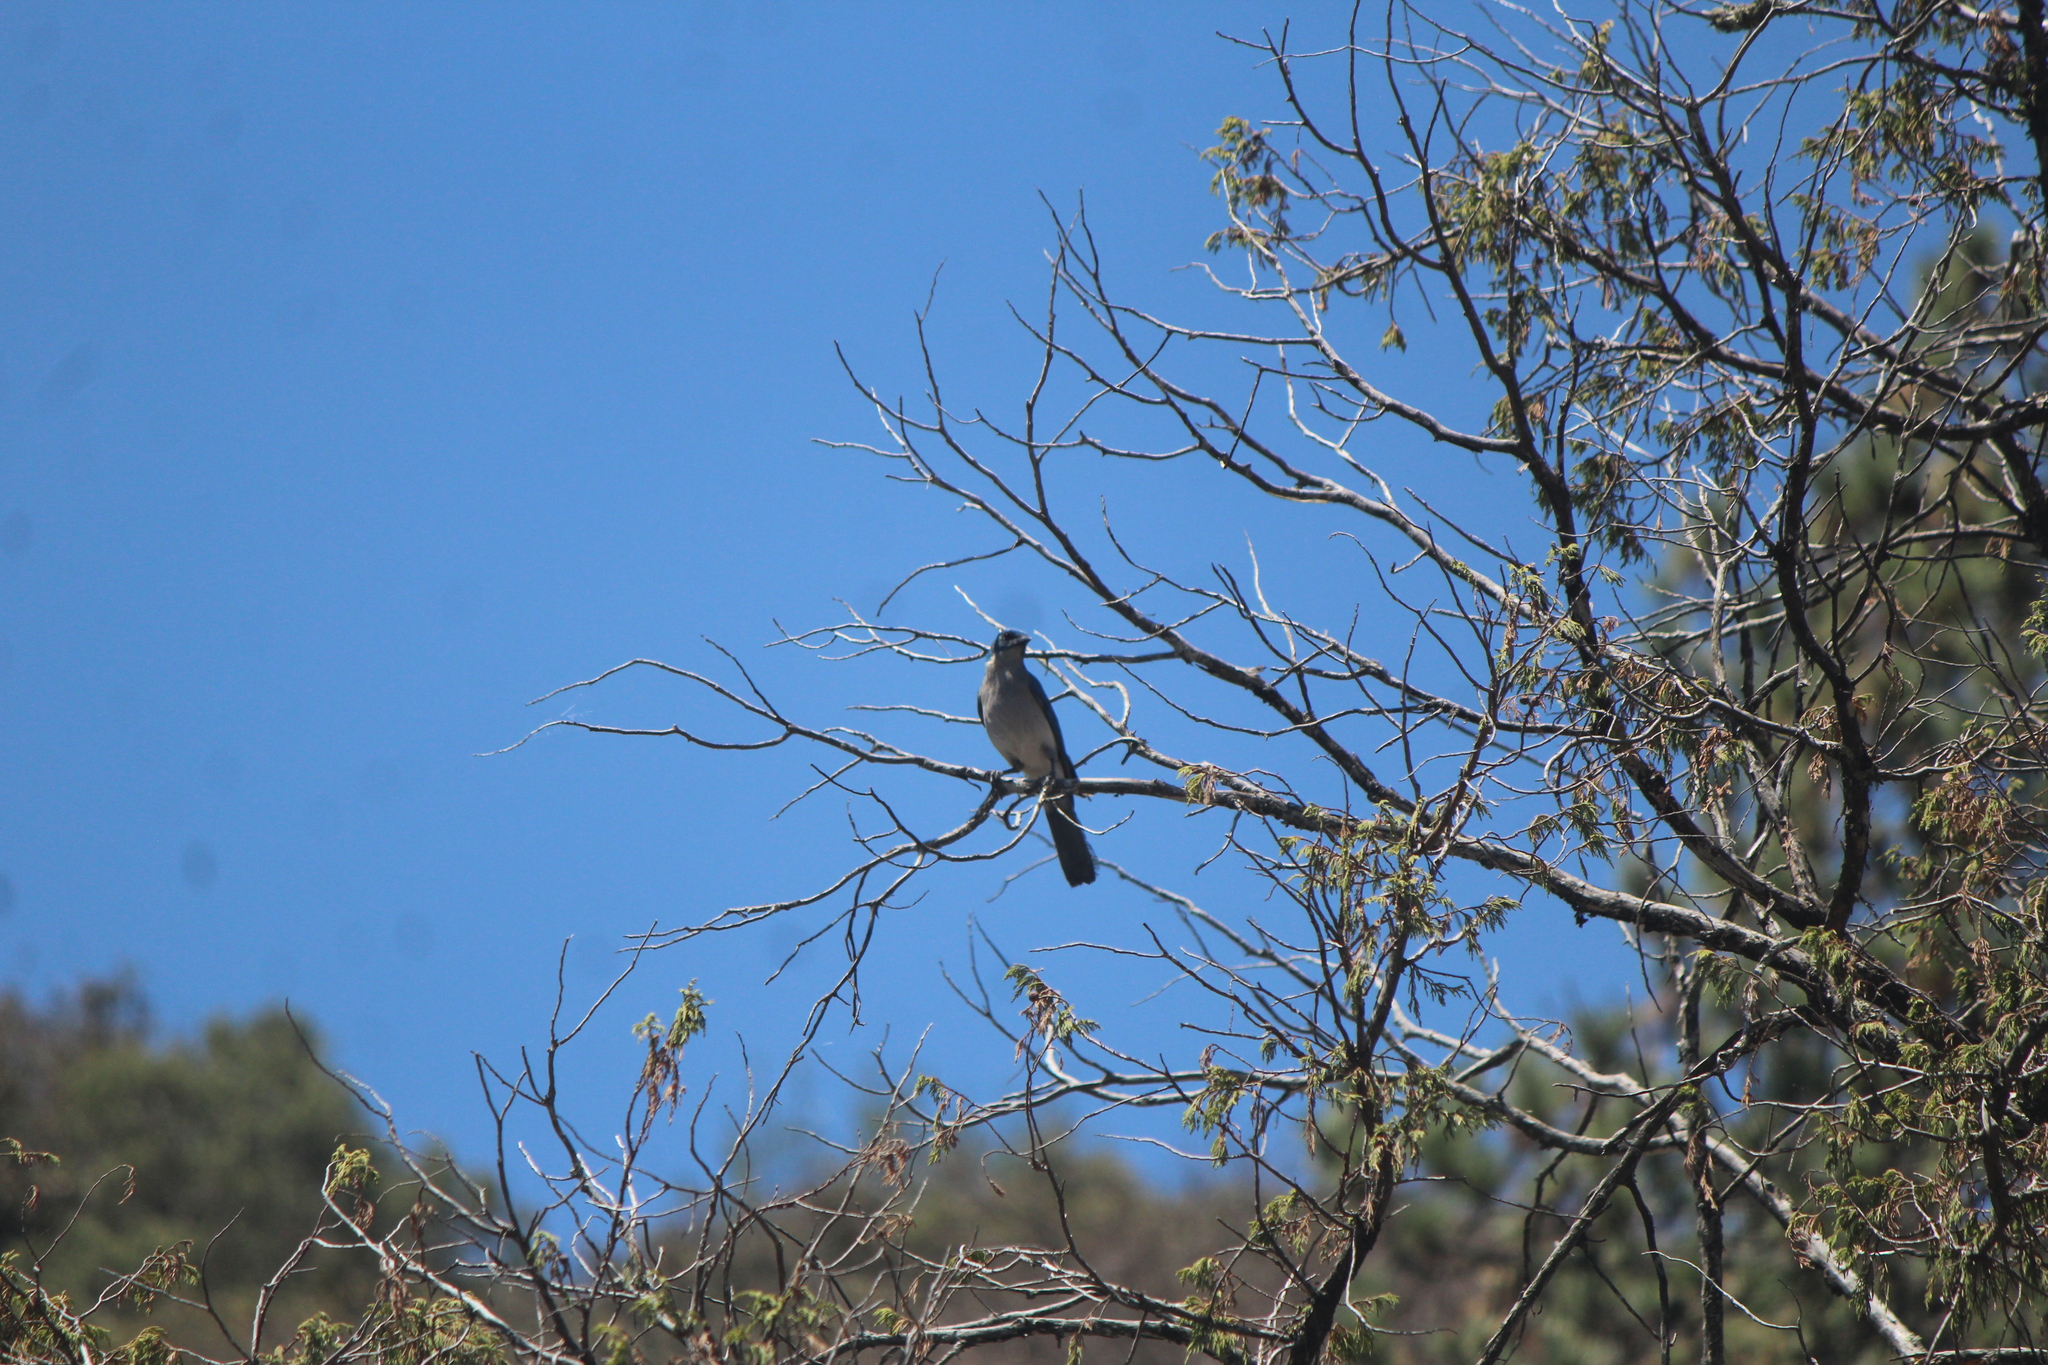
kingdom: Animalia
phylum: Chordata
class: Aves
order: Passeriformes
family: Corvidae
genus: Aphelocoma
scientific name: Aphelocoma wollweberi
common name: Mexican jay
